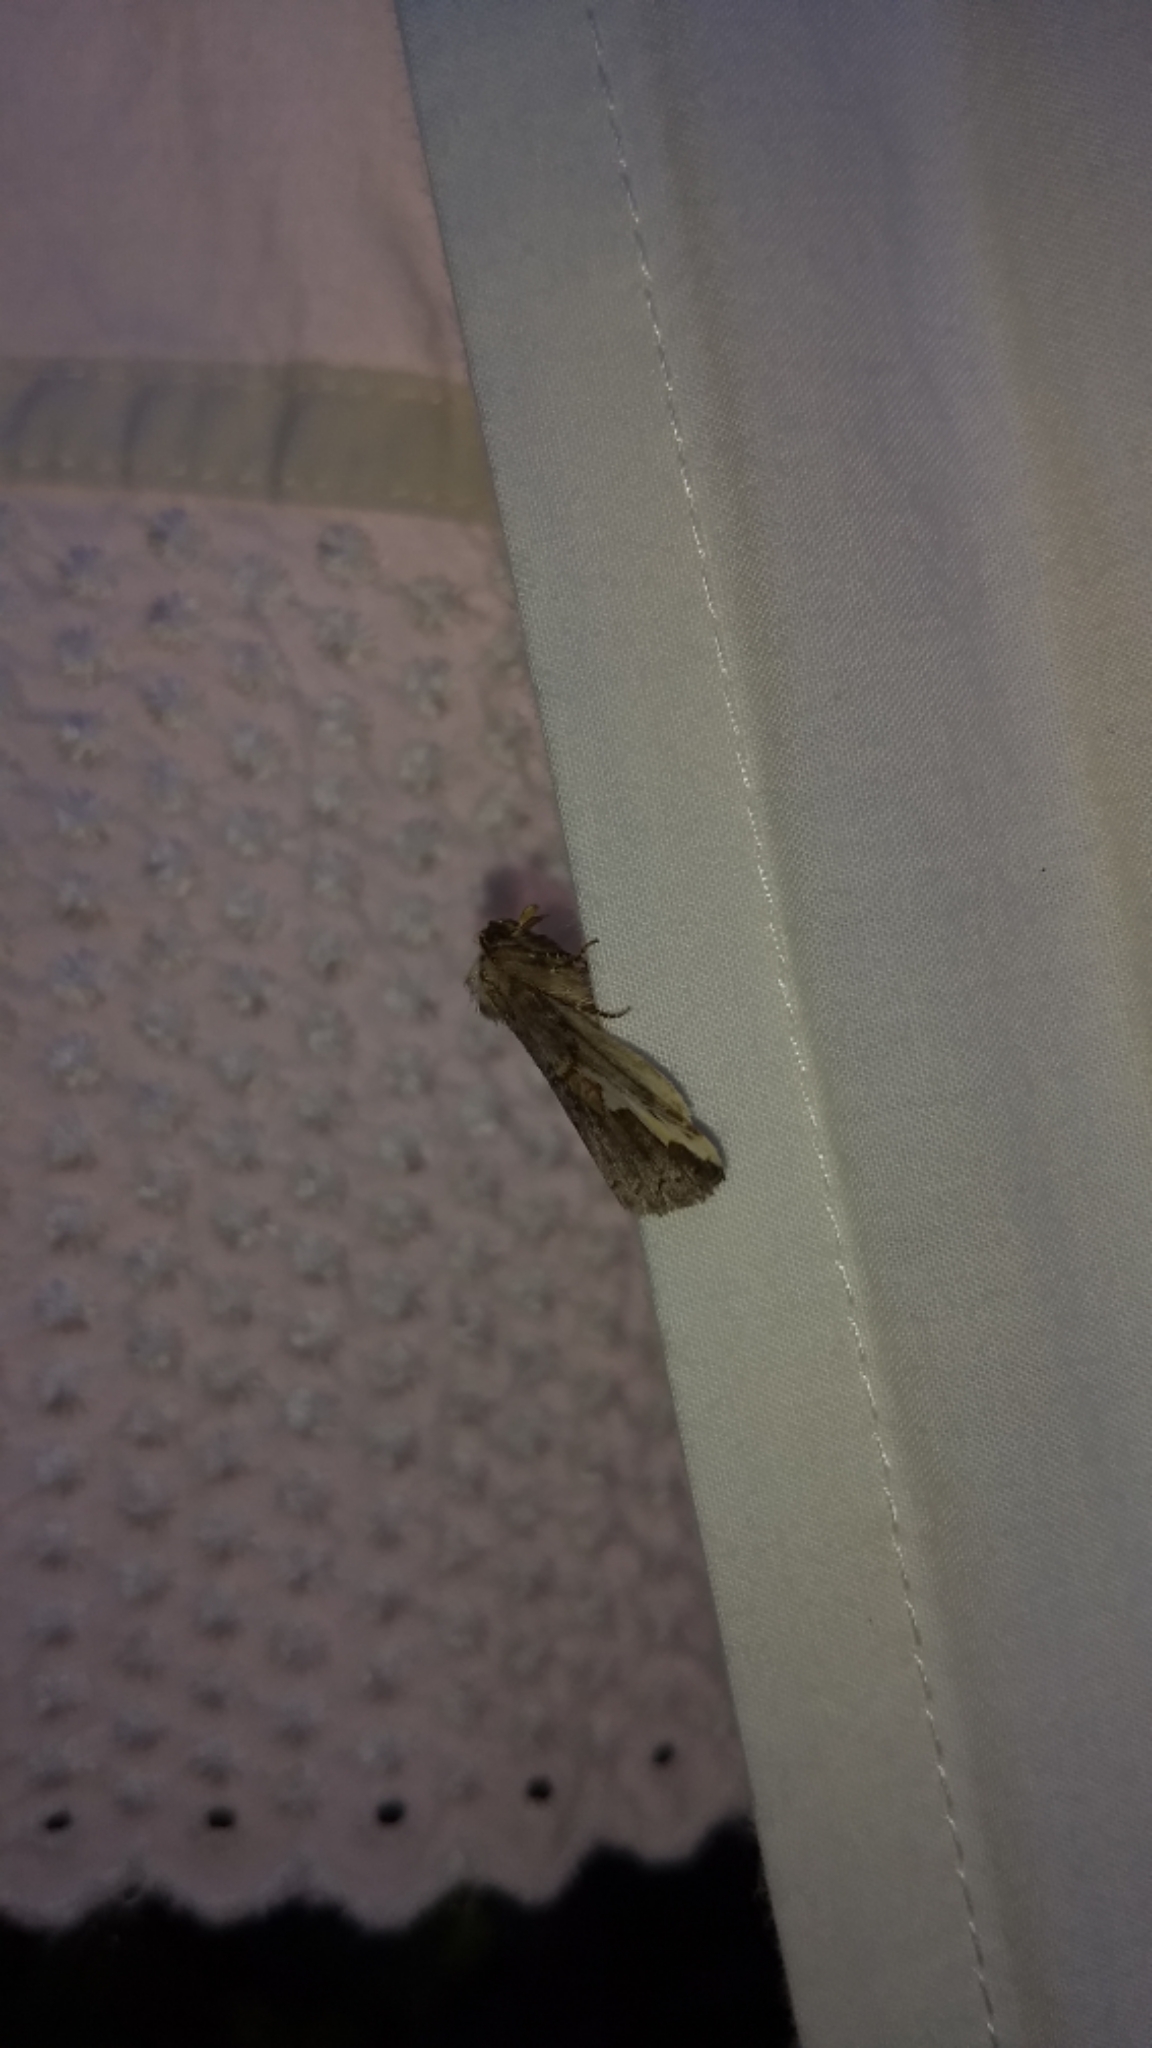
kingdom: Animalia
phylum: Arthropoda
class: Insecta
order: Lepidoptera
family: Notodontidae
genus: Symmerista
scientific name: Symmerista
